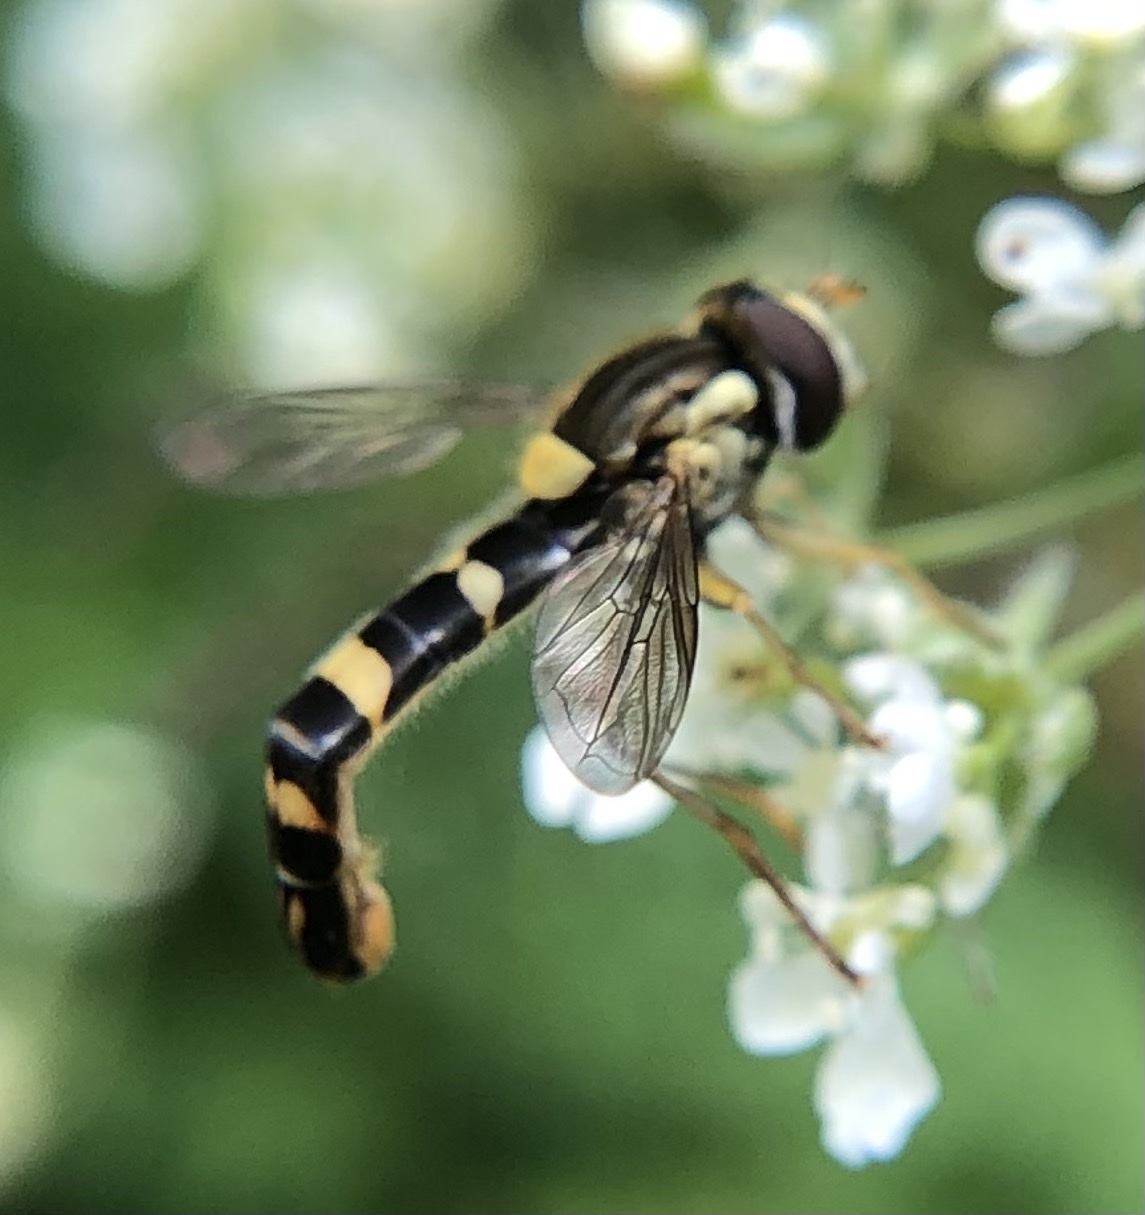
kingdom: Animalia
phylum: Arthropoda
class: Insecta
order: Diptera
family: Syrphidae
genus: Sphaerophoria
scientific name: Sphaerophoria scripta
